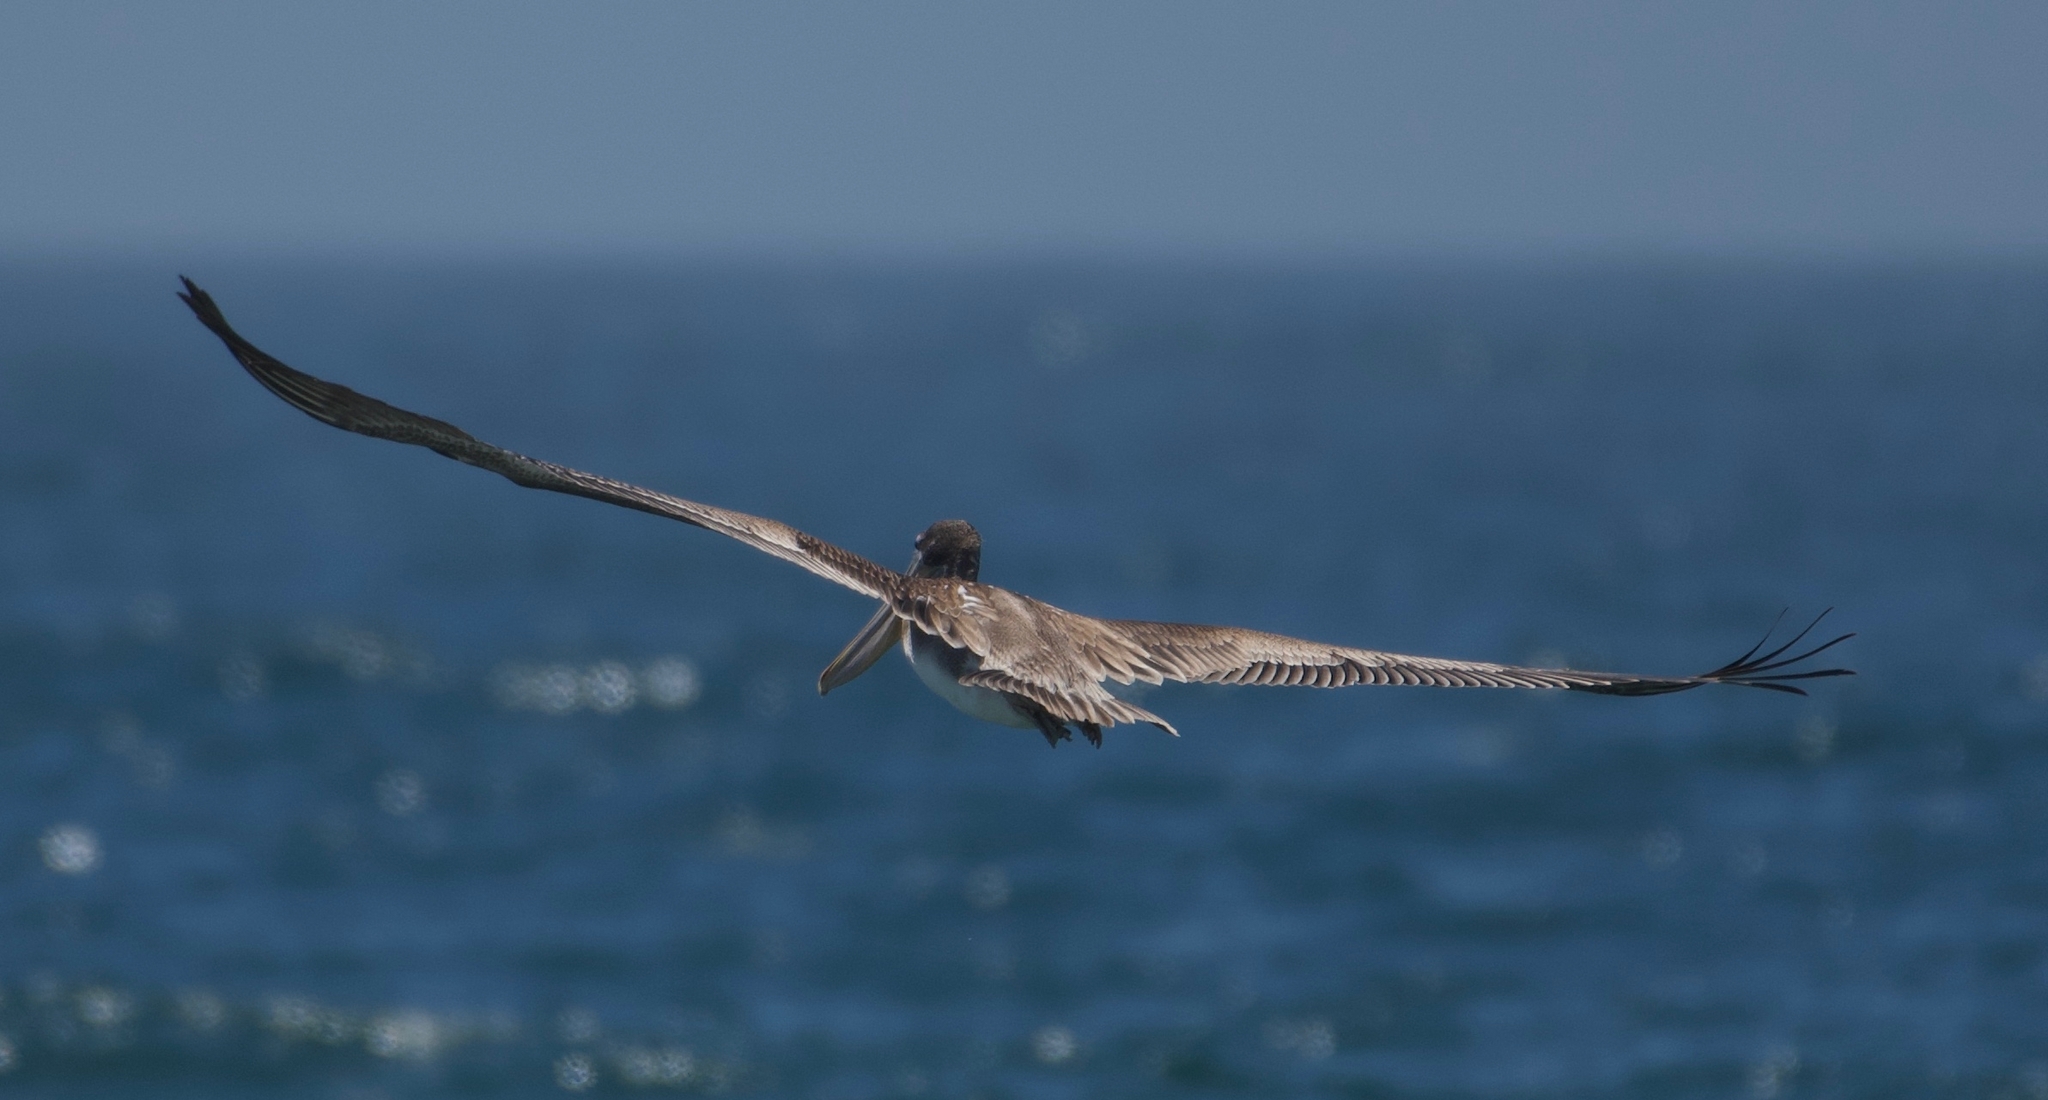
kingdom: Animalia
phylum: Chordata
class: Aves
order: Pelecaniformes
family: Pelecanidae
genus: Pelecanus
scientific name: Pelecanus occidentalis
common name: Brown pelican
